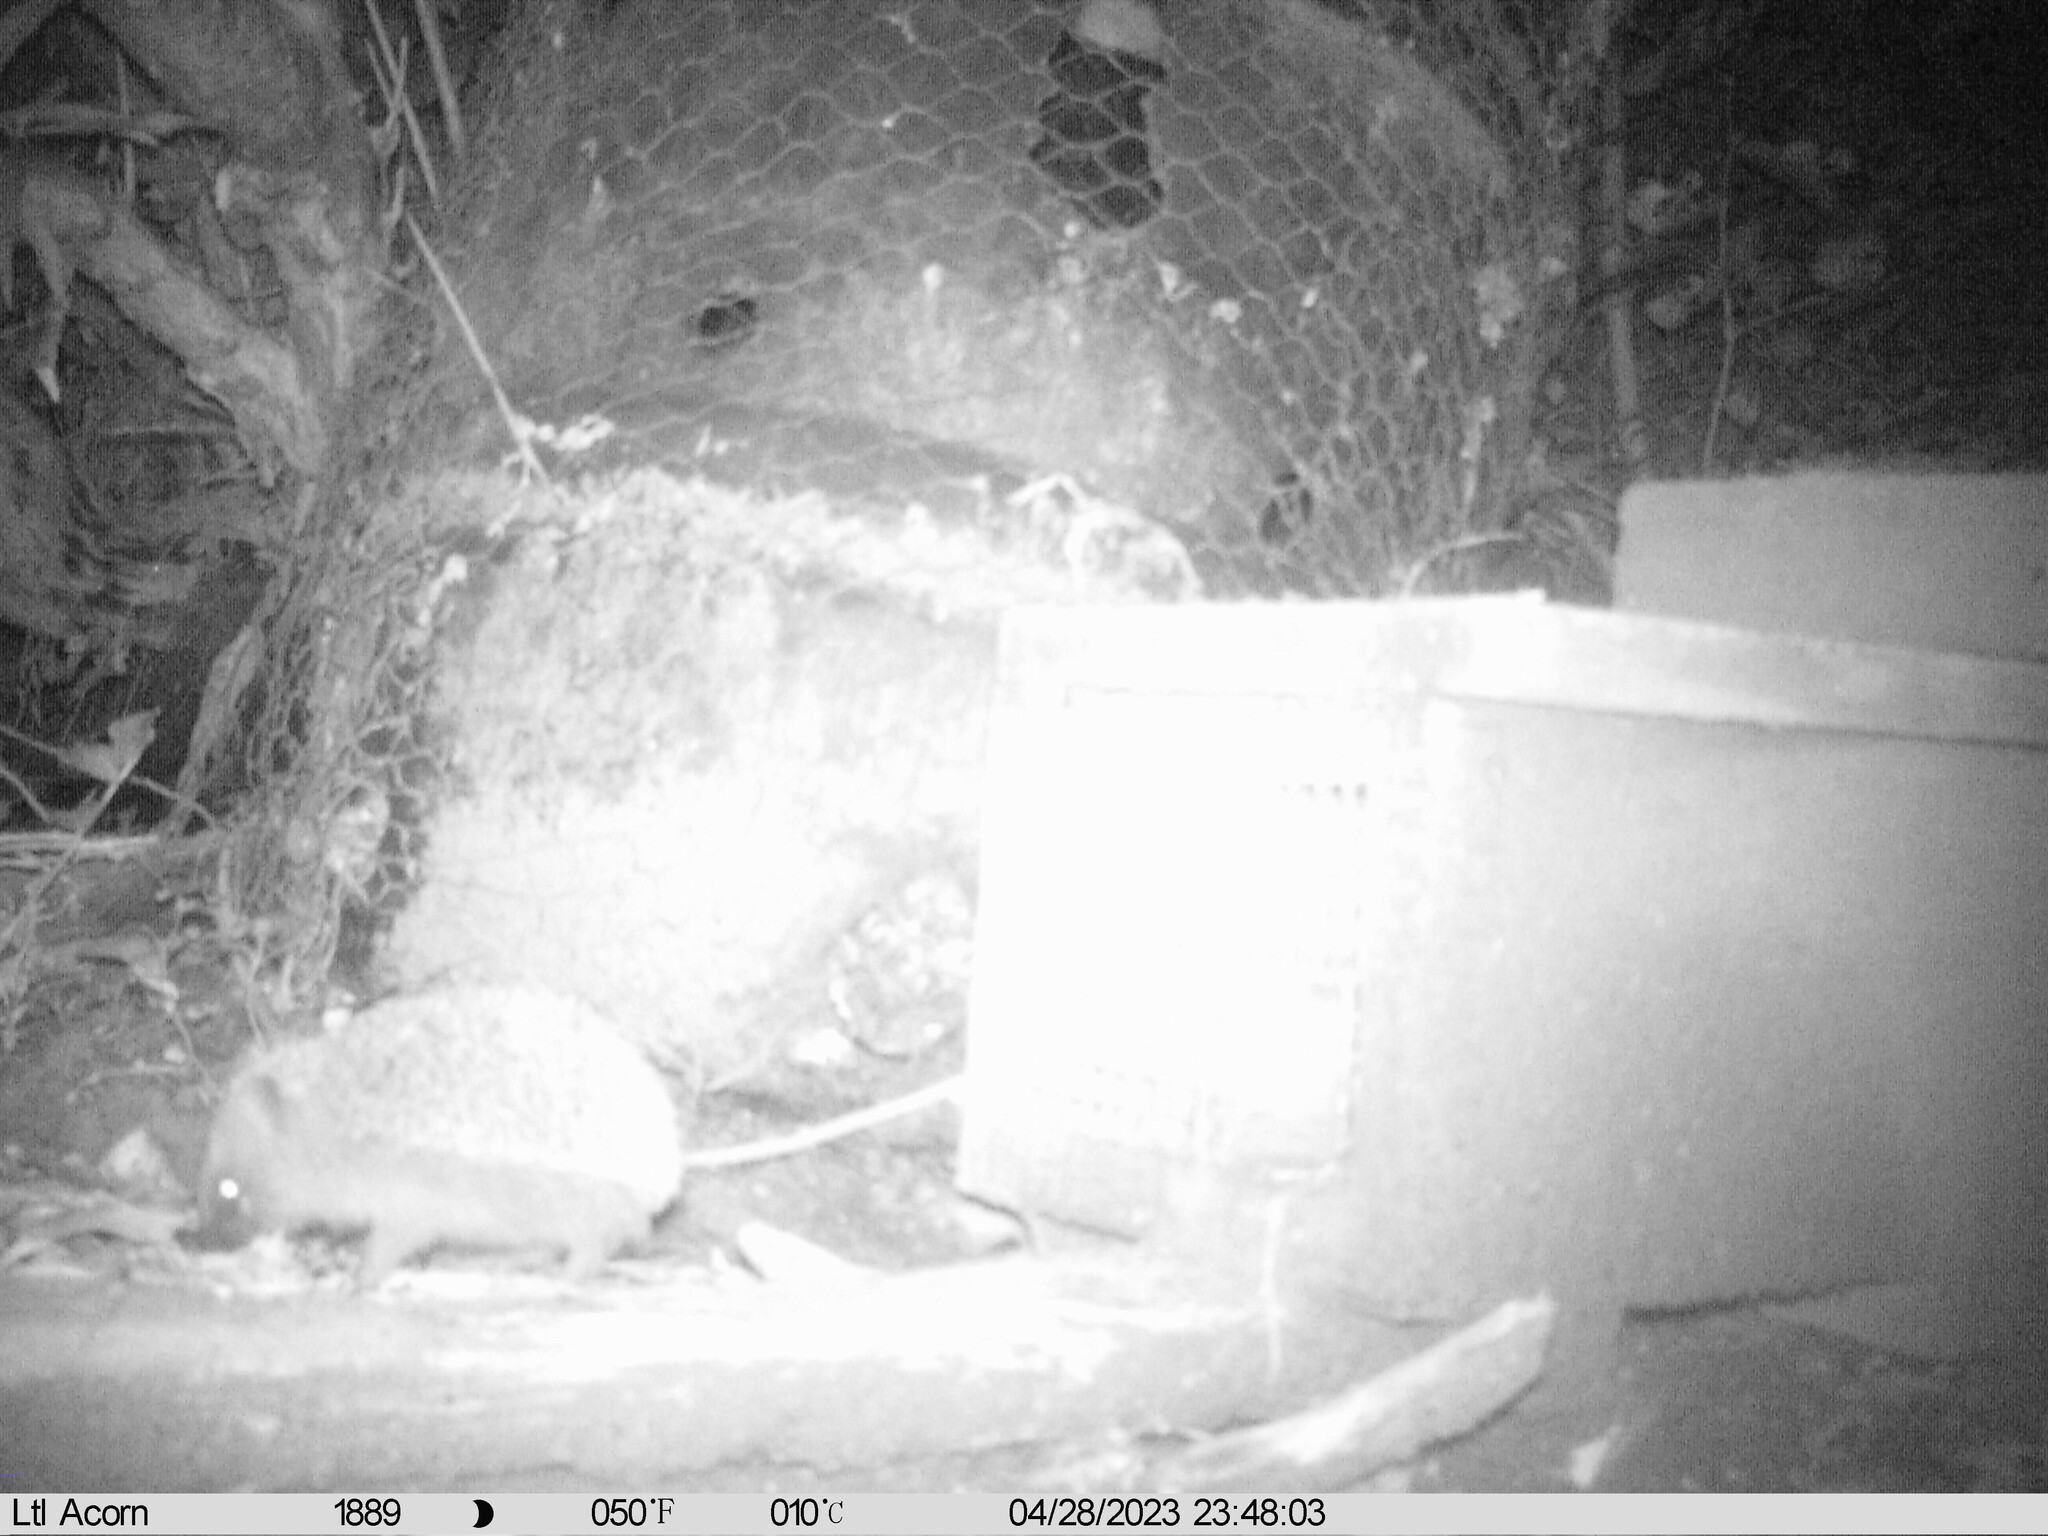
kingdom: Animalia
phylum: Chordata
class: Mammalia
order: Erinaceomorpha
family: Erinaceidae
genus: Erinaceus
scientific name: Erinaceus europaeus
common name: West european hedgehog
